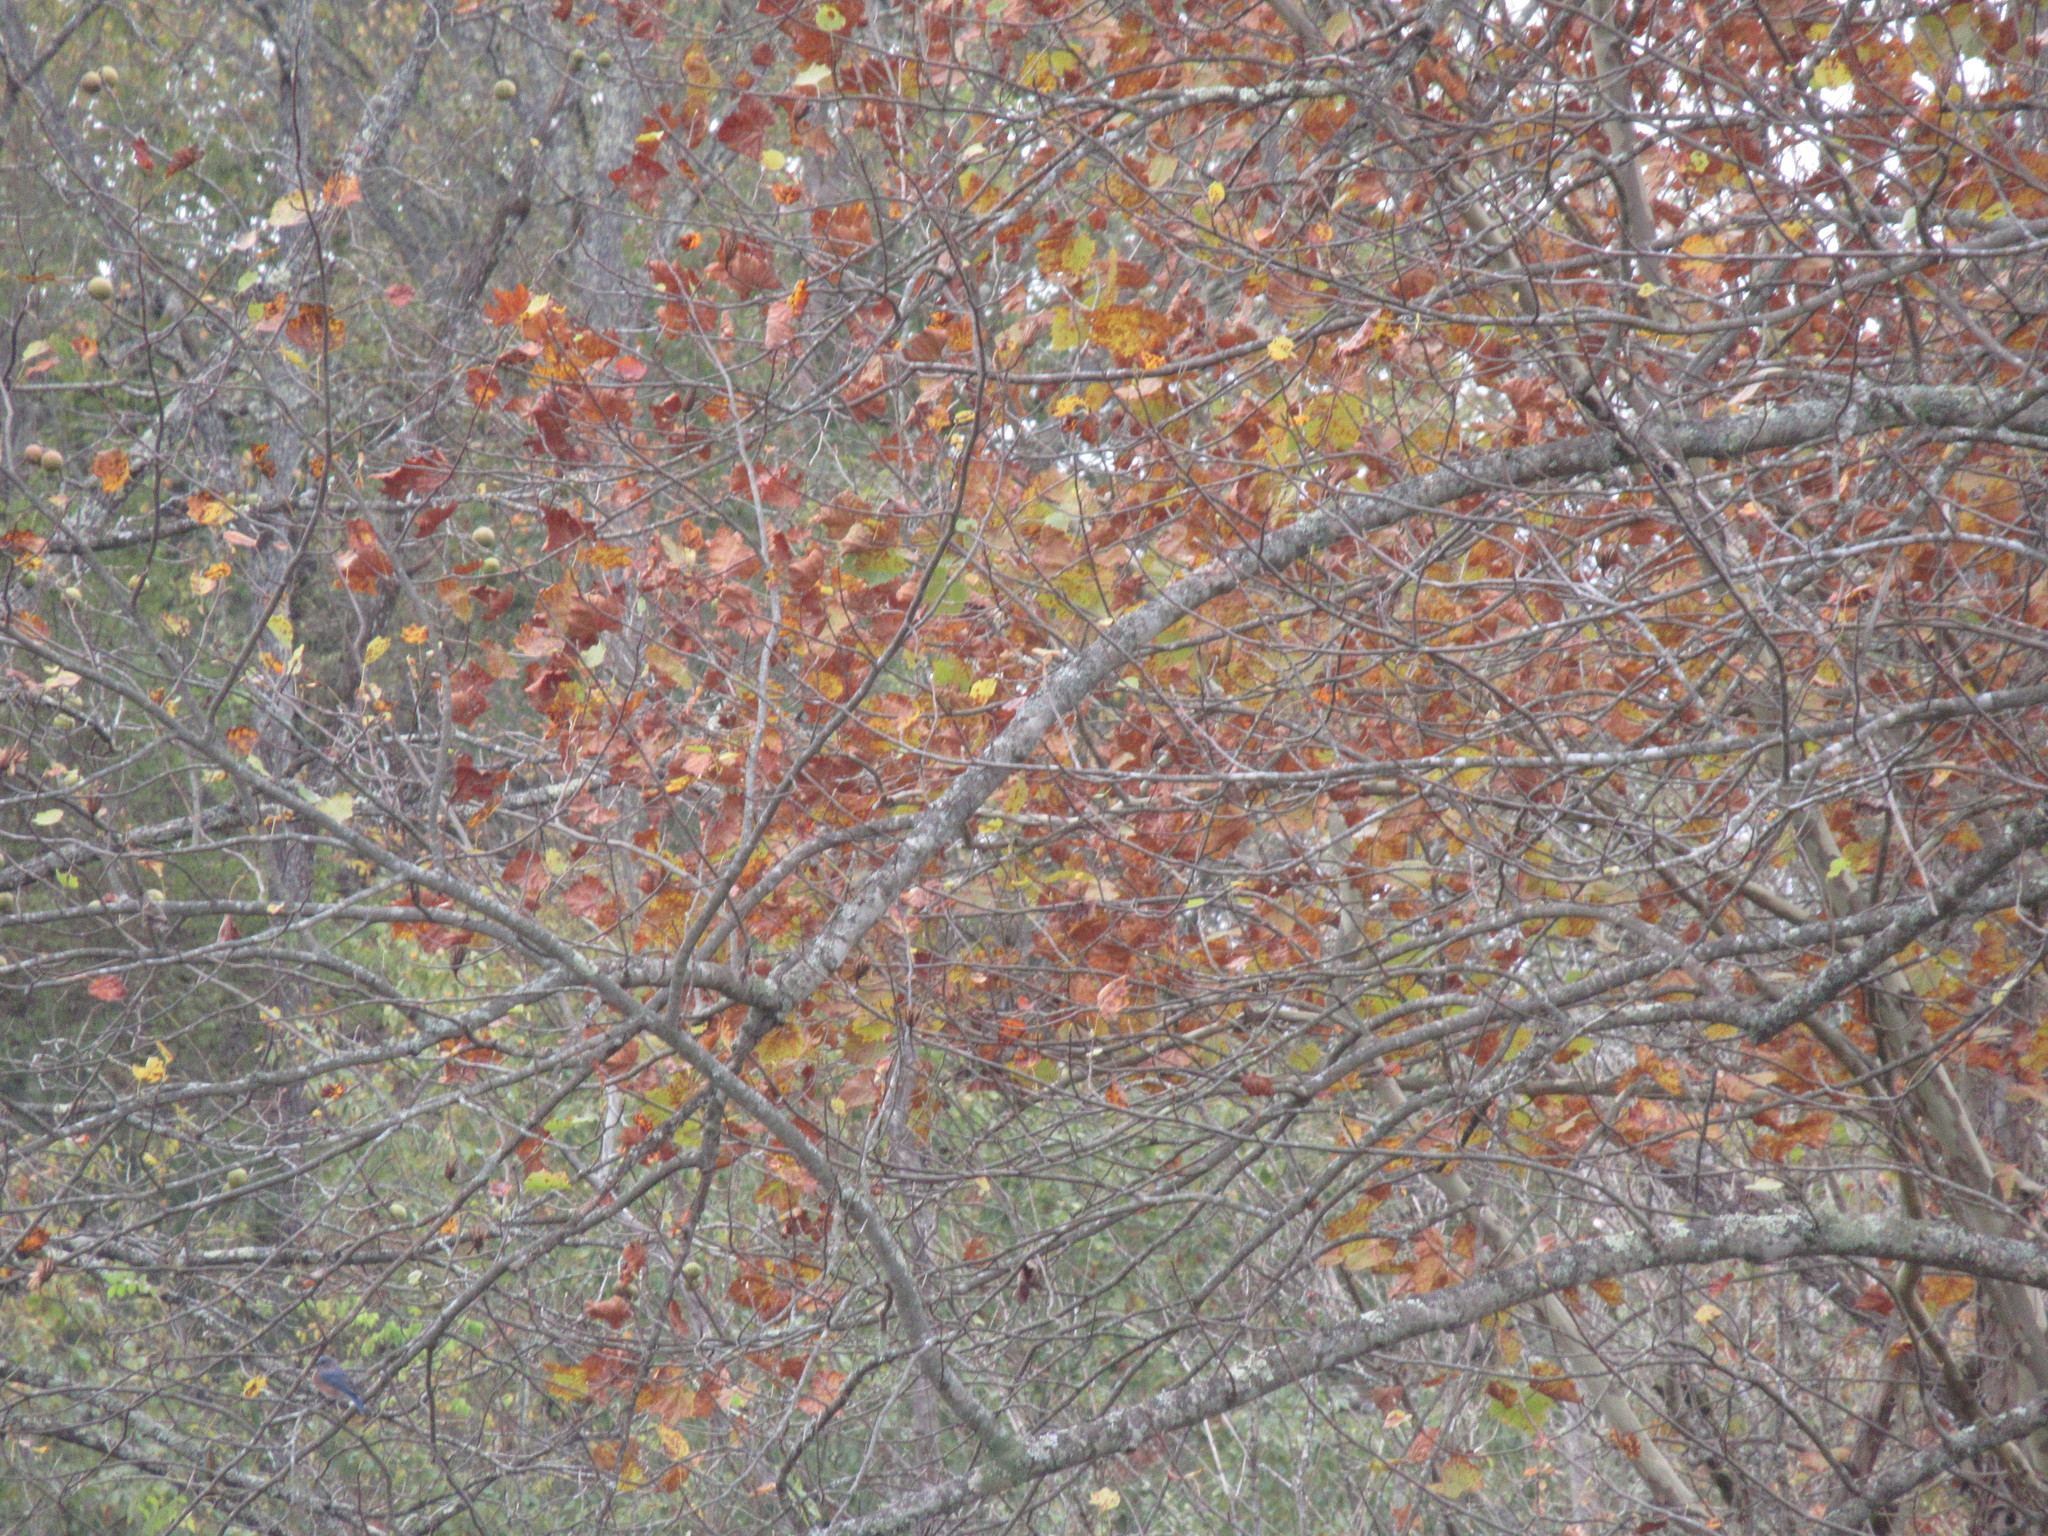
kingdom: Animalia
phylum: Chordata
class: Aves
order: Passeriformes
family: Turdidae
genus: Sialia
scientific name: Sialia sialis
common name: Eastern bluebird
